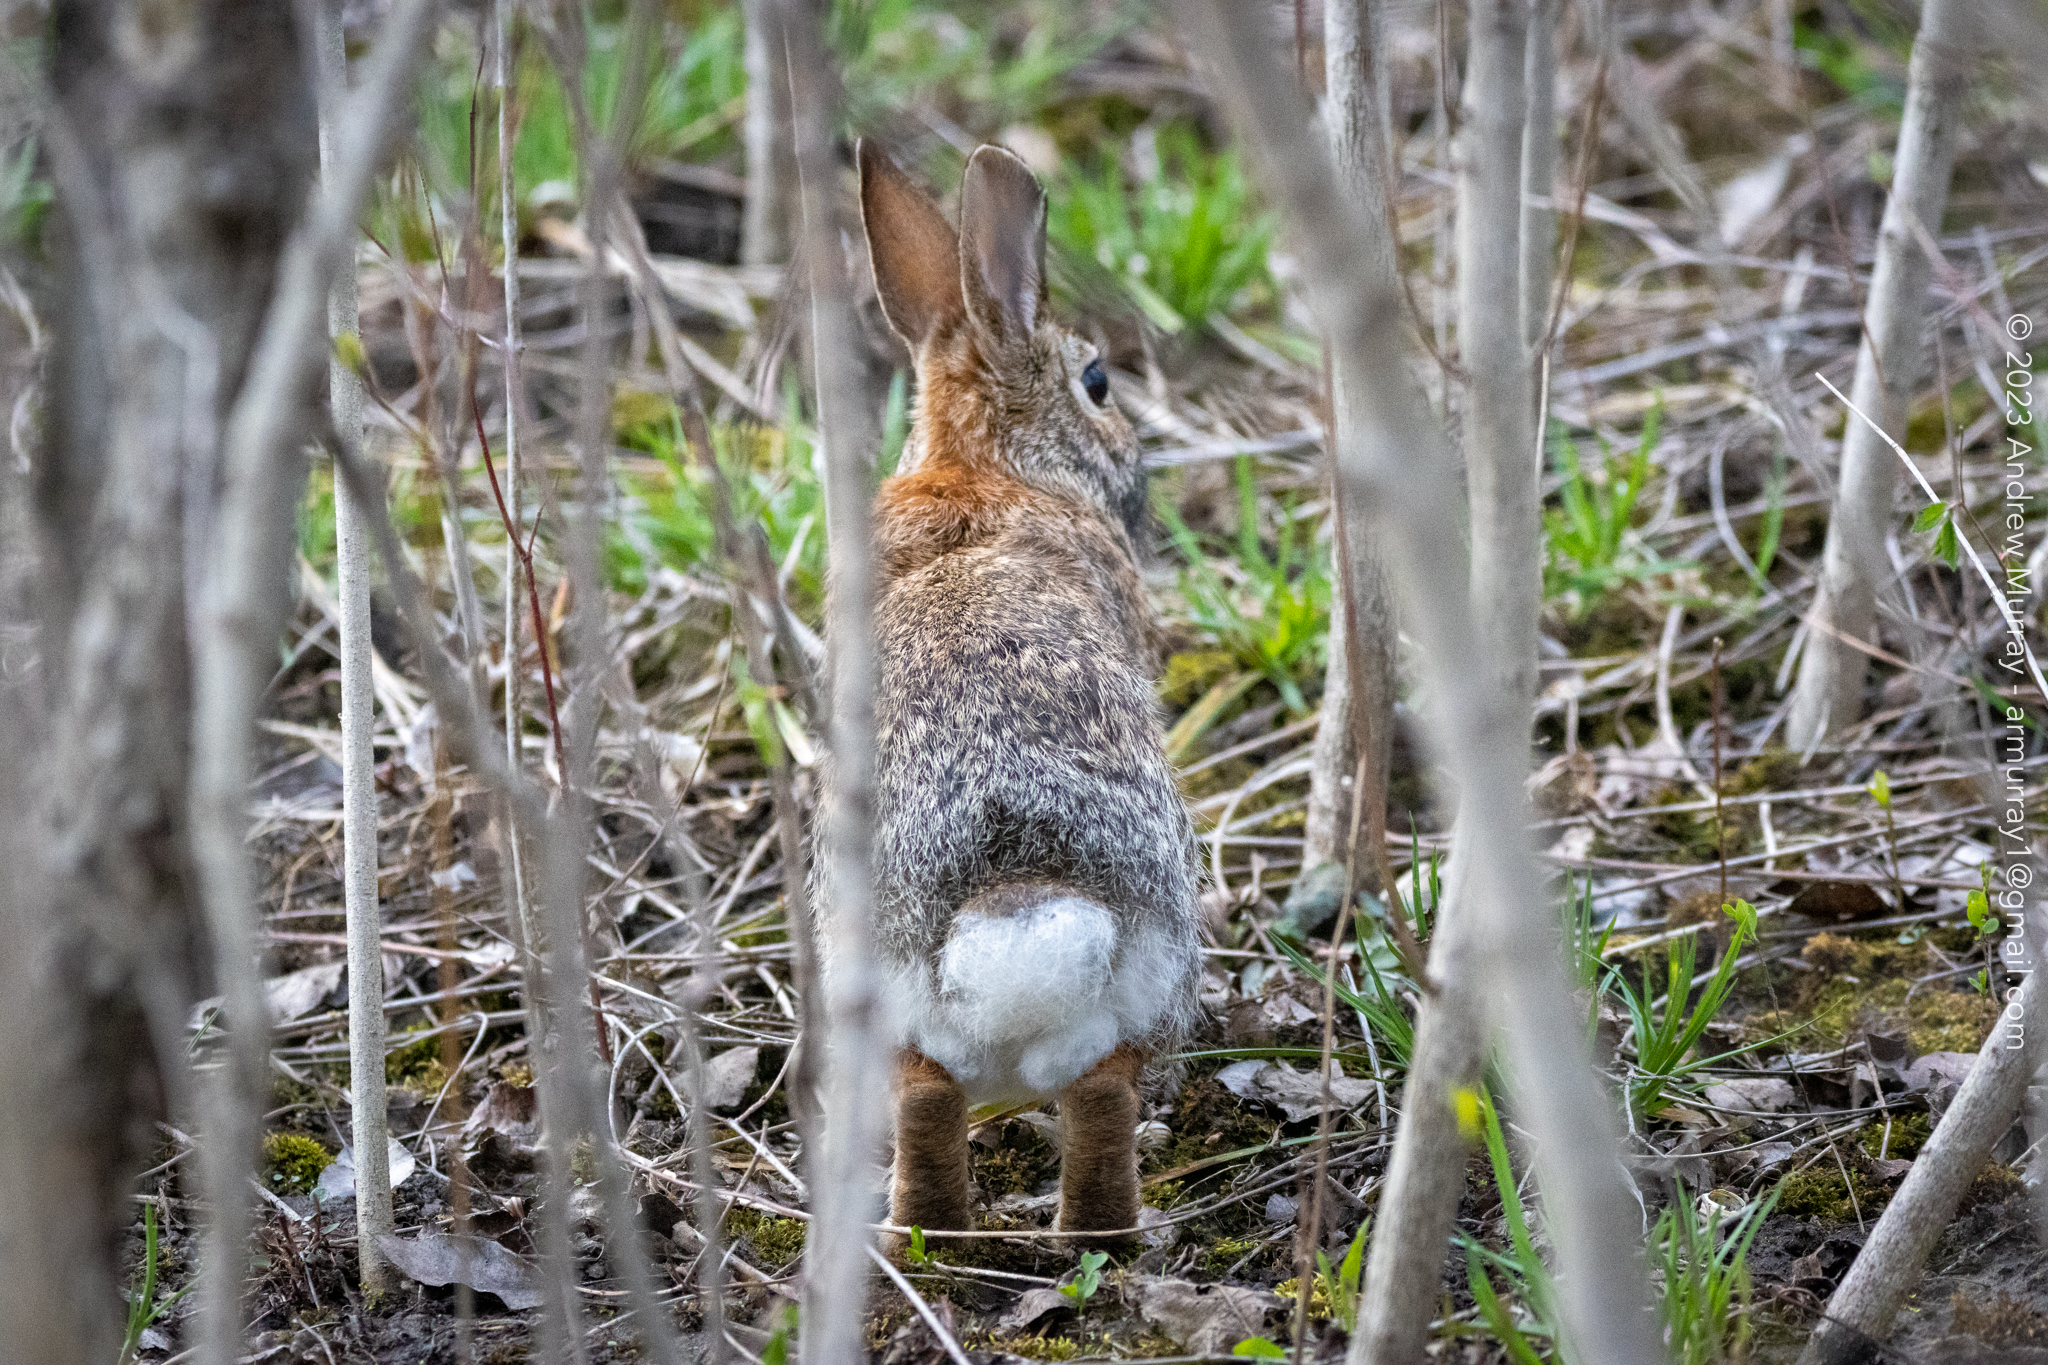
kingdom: Animalia
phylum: Chordata
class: Mammalia
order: Lagomorpha
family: Leporidae
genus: Sylvilagus
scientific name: Sylvilagus floridanus
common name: Eastern cottontail
